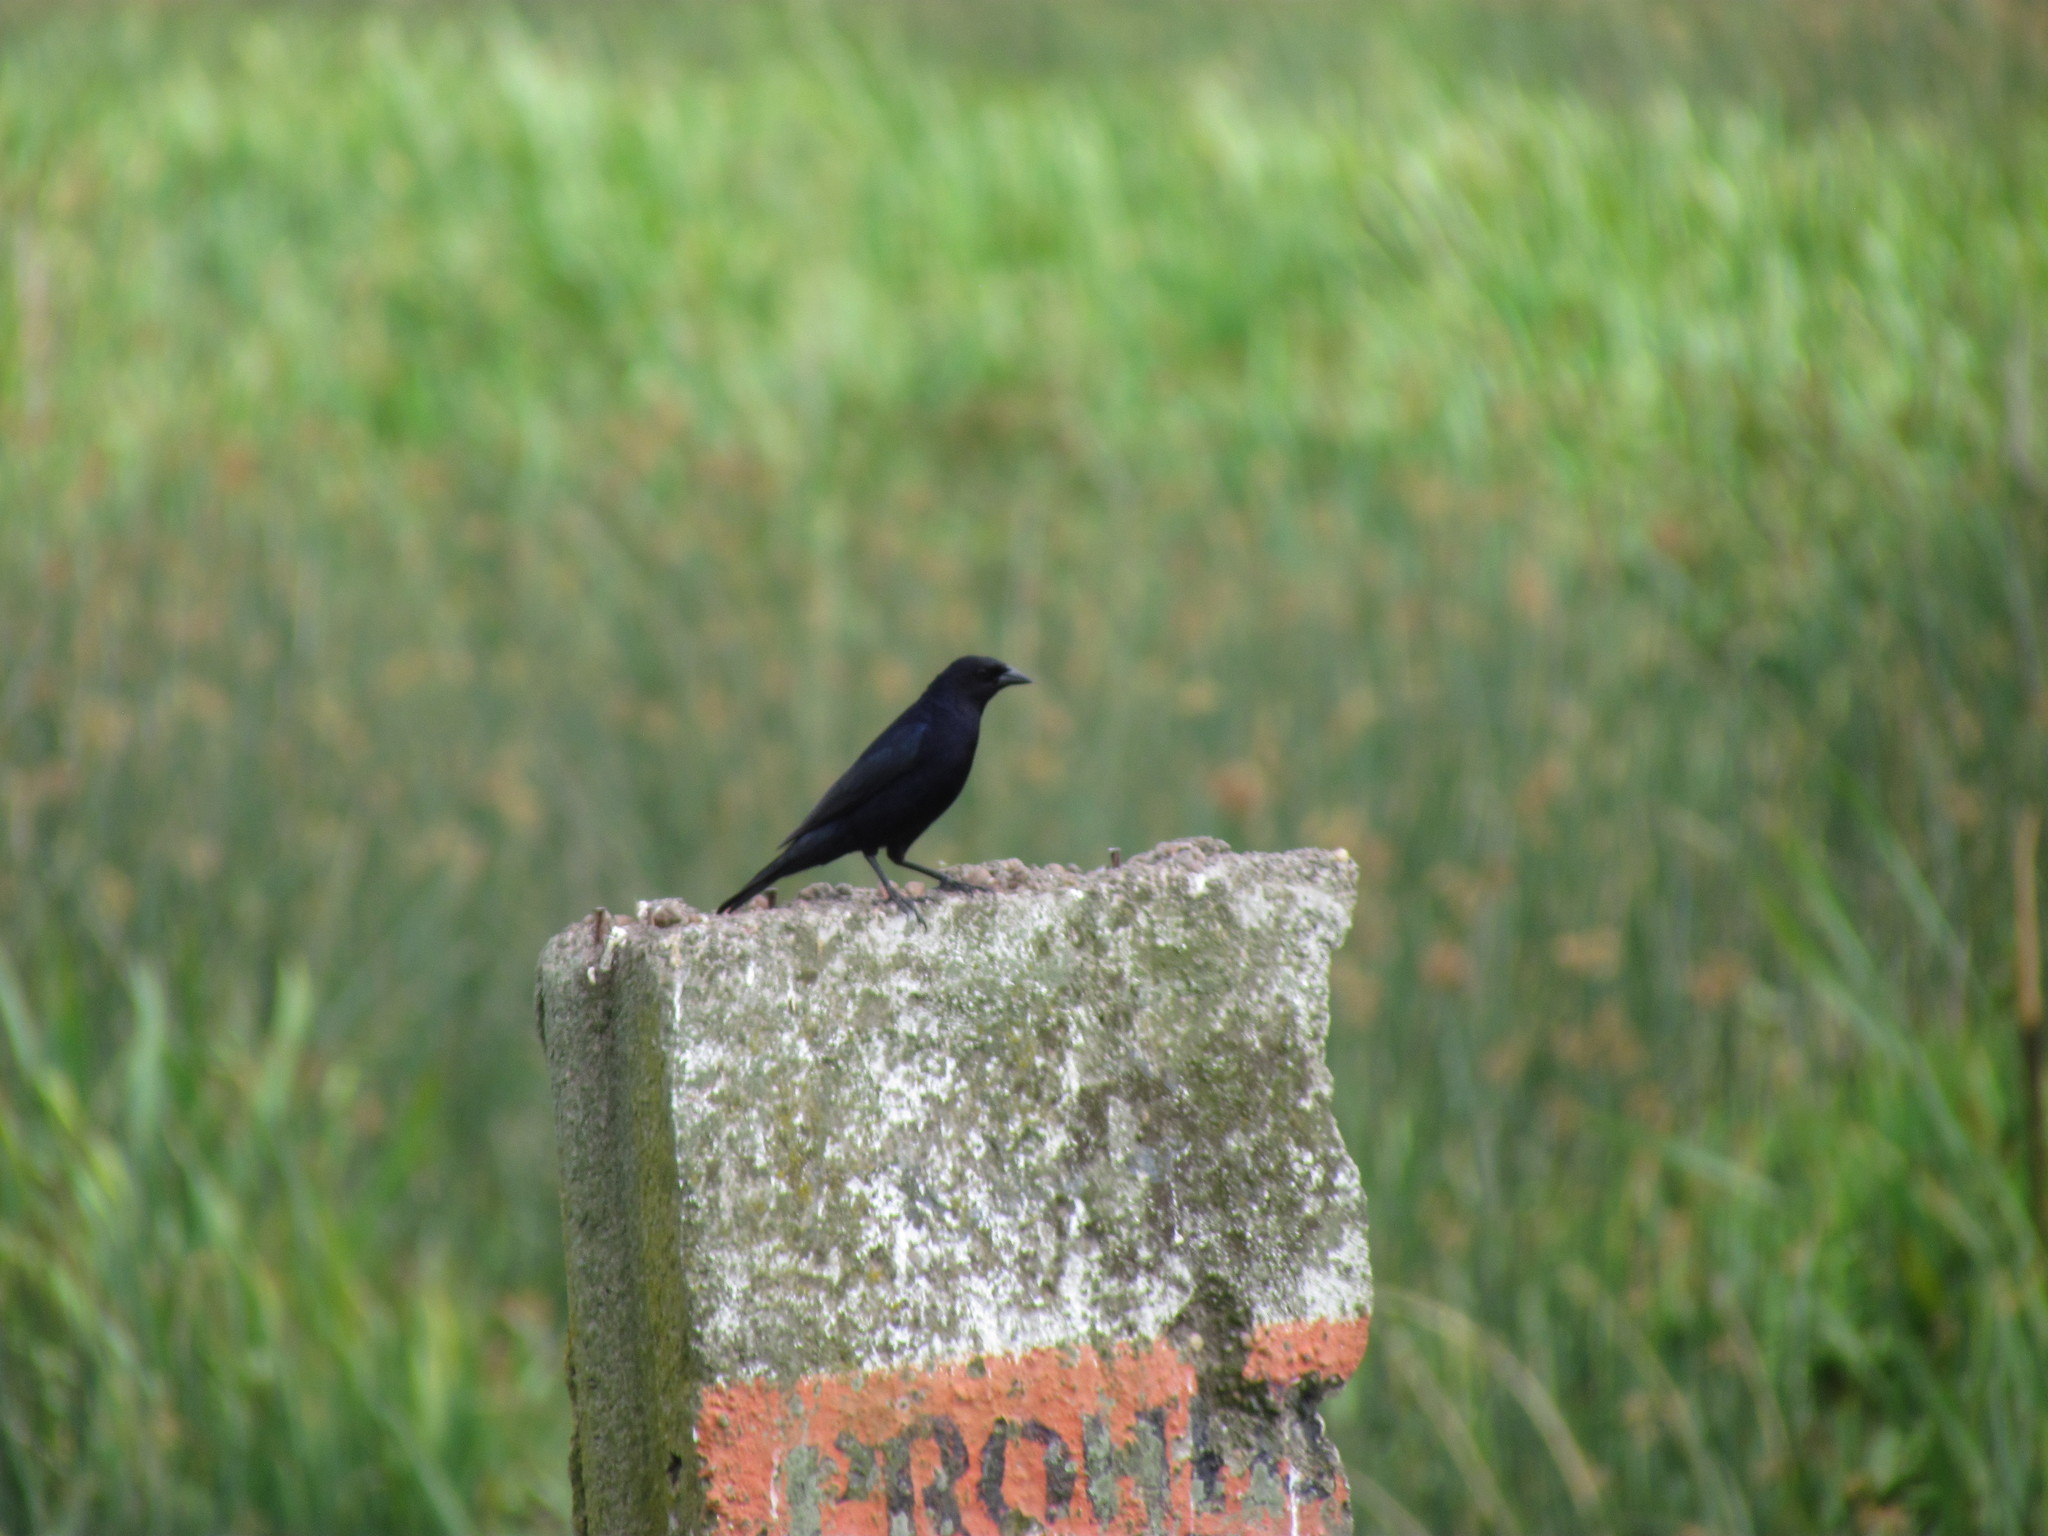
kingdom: Animalia
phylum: Chordata
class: Aves
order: Passeriformes
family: Icteridae
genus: Molothrus
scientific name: Molothrus bonariensis
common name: Shiny cowbird
